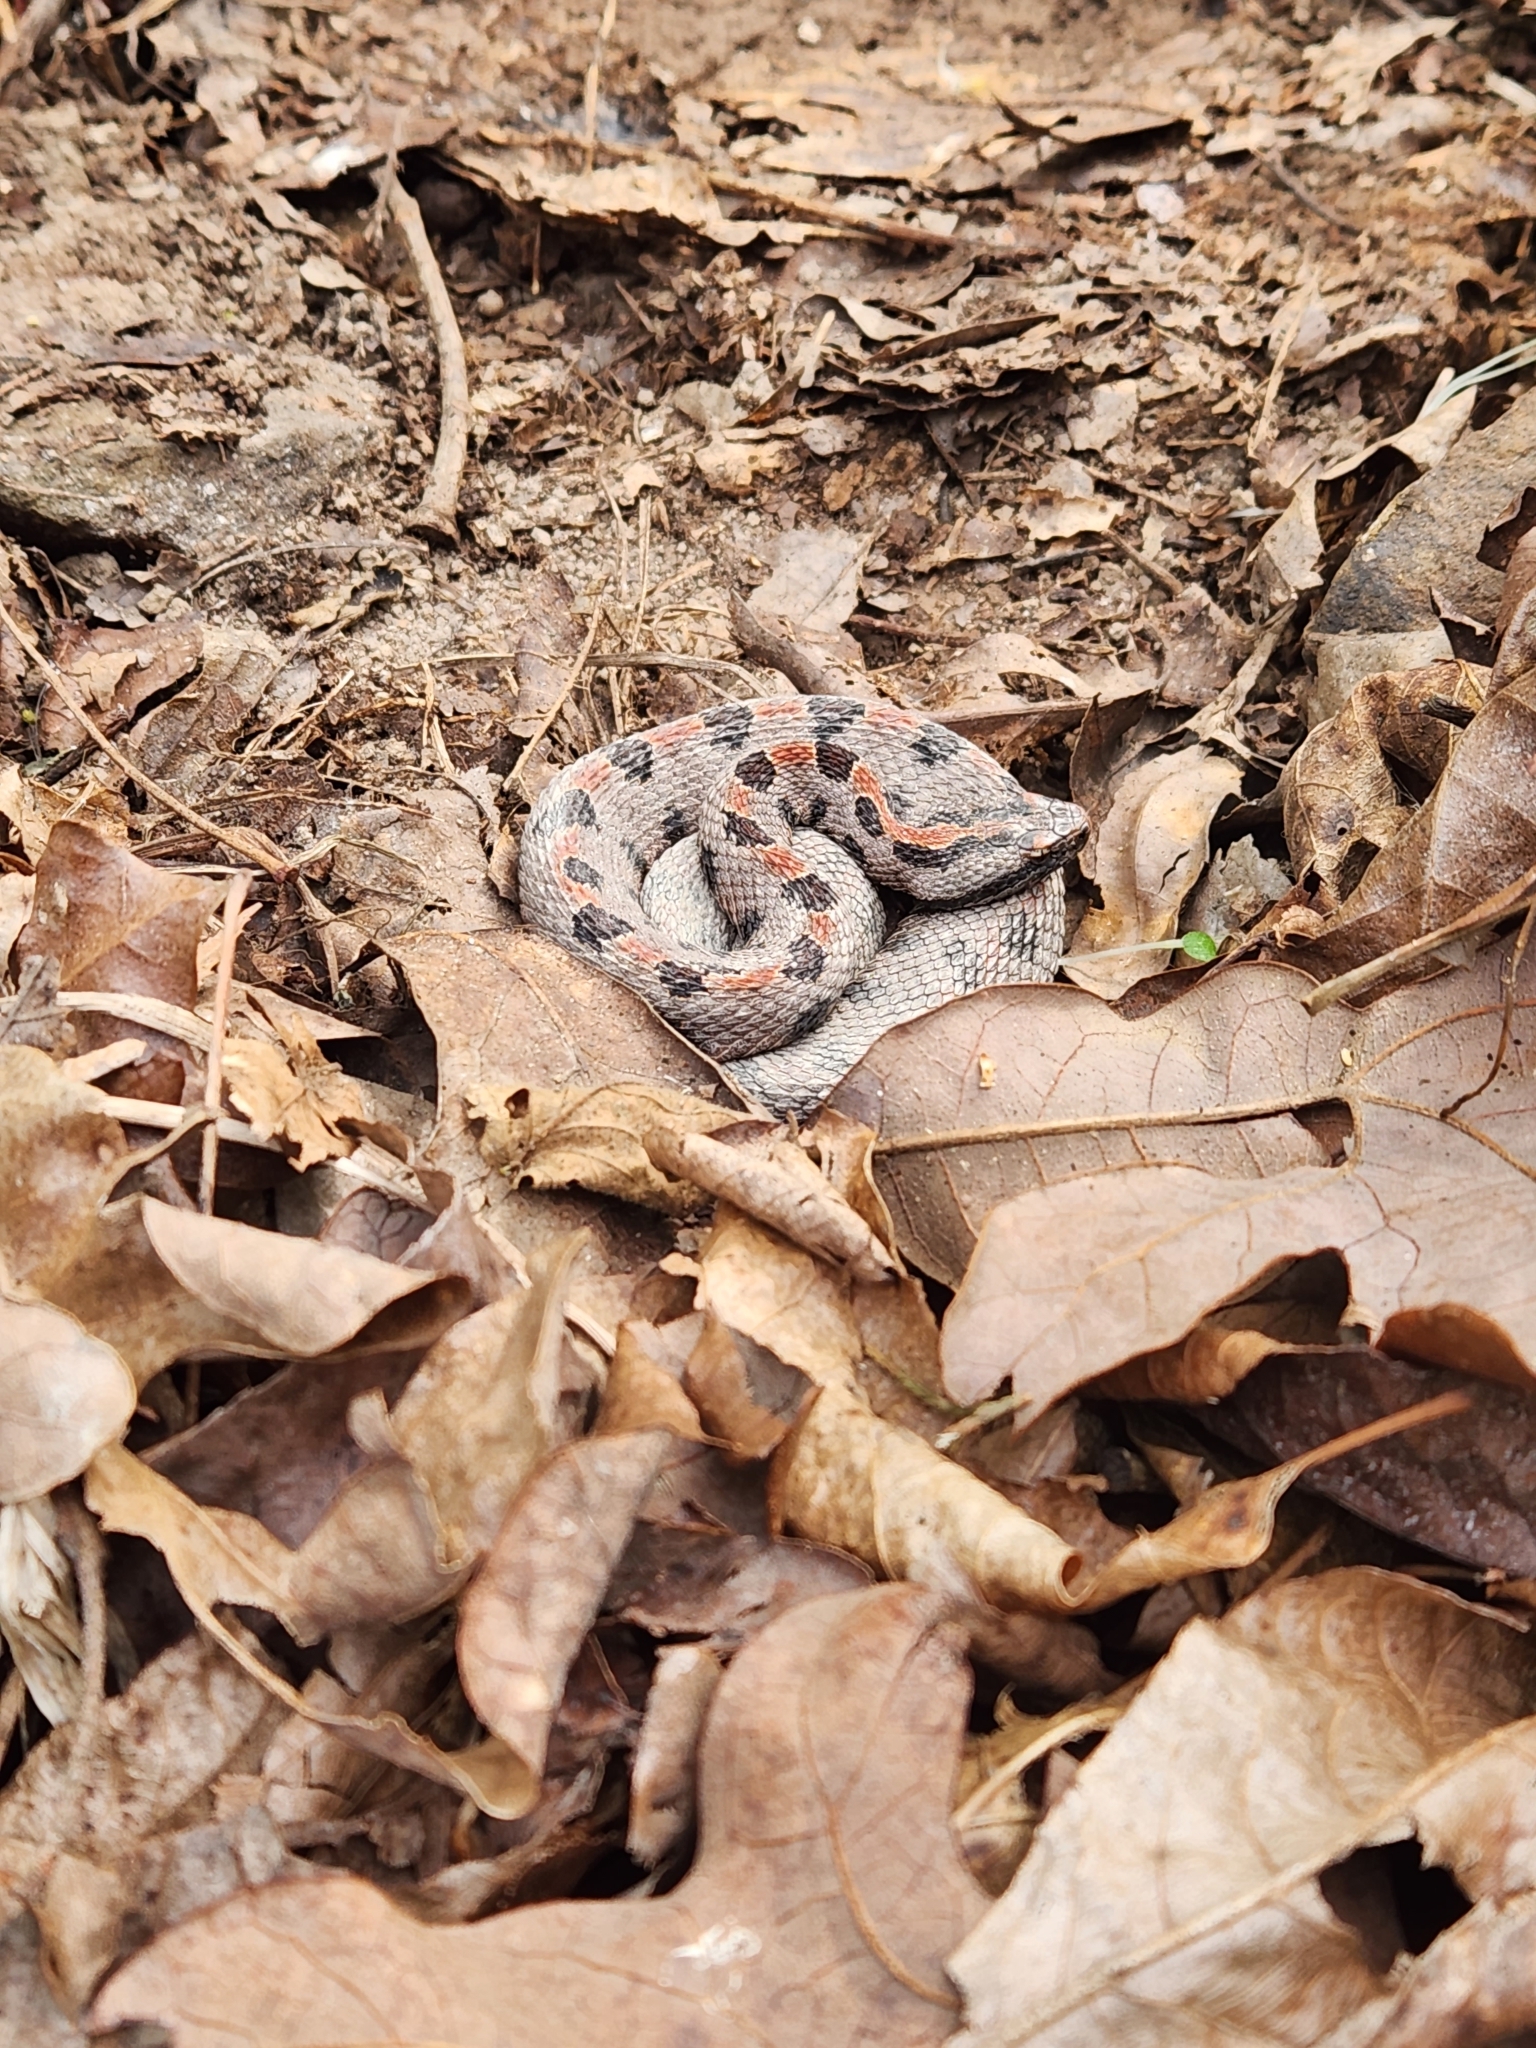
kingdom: Animalia
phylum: Chordata
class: Squamata
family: Viperidae
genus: Sistrurus
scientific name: Sistrurus miliarius
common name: Pygmy rattlesnake
